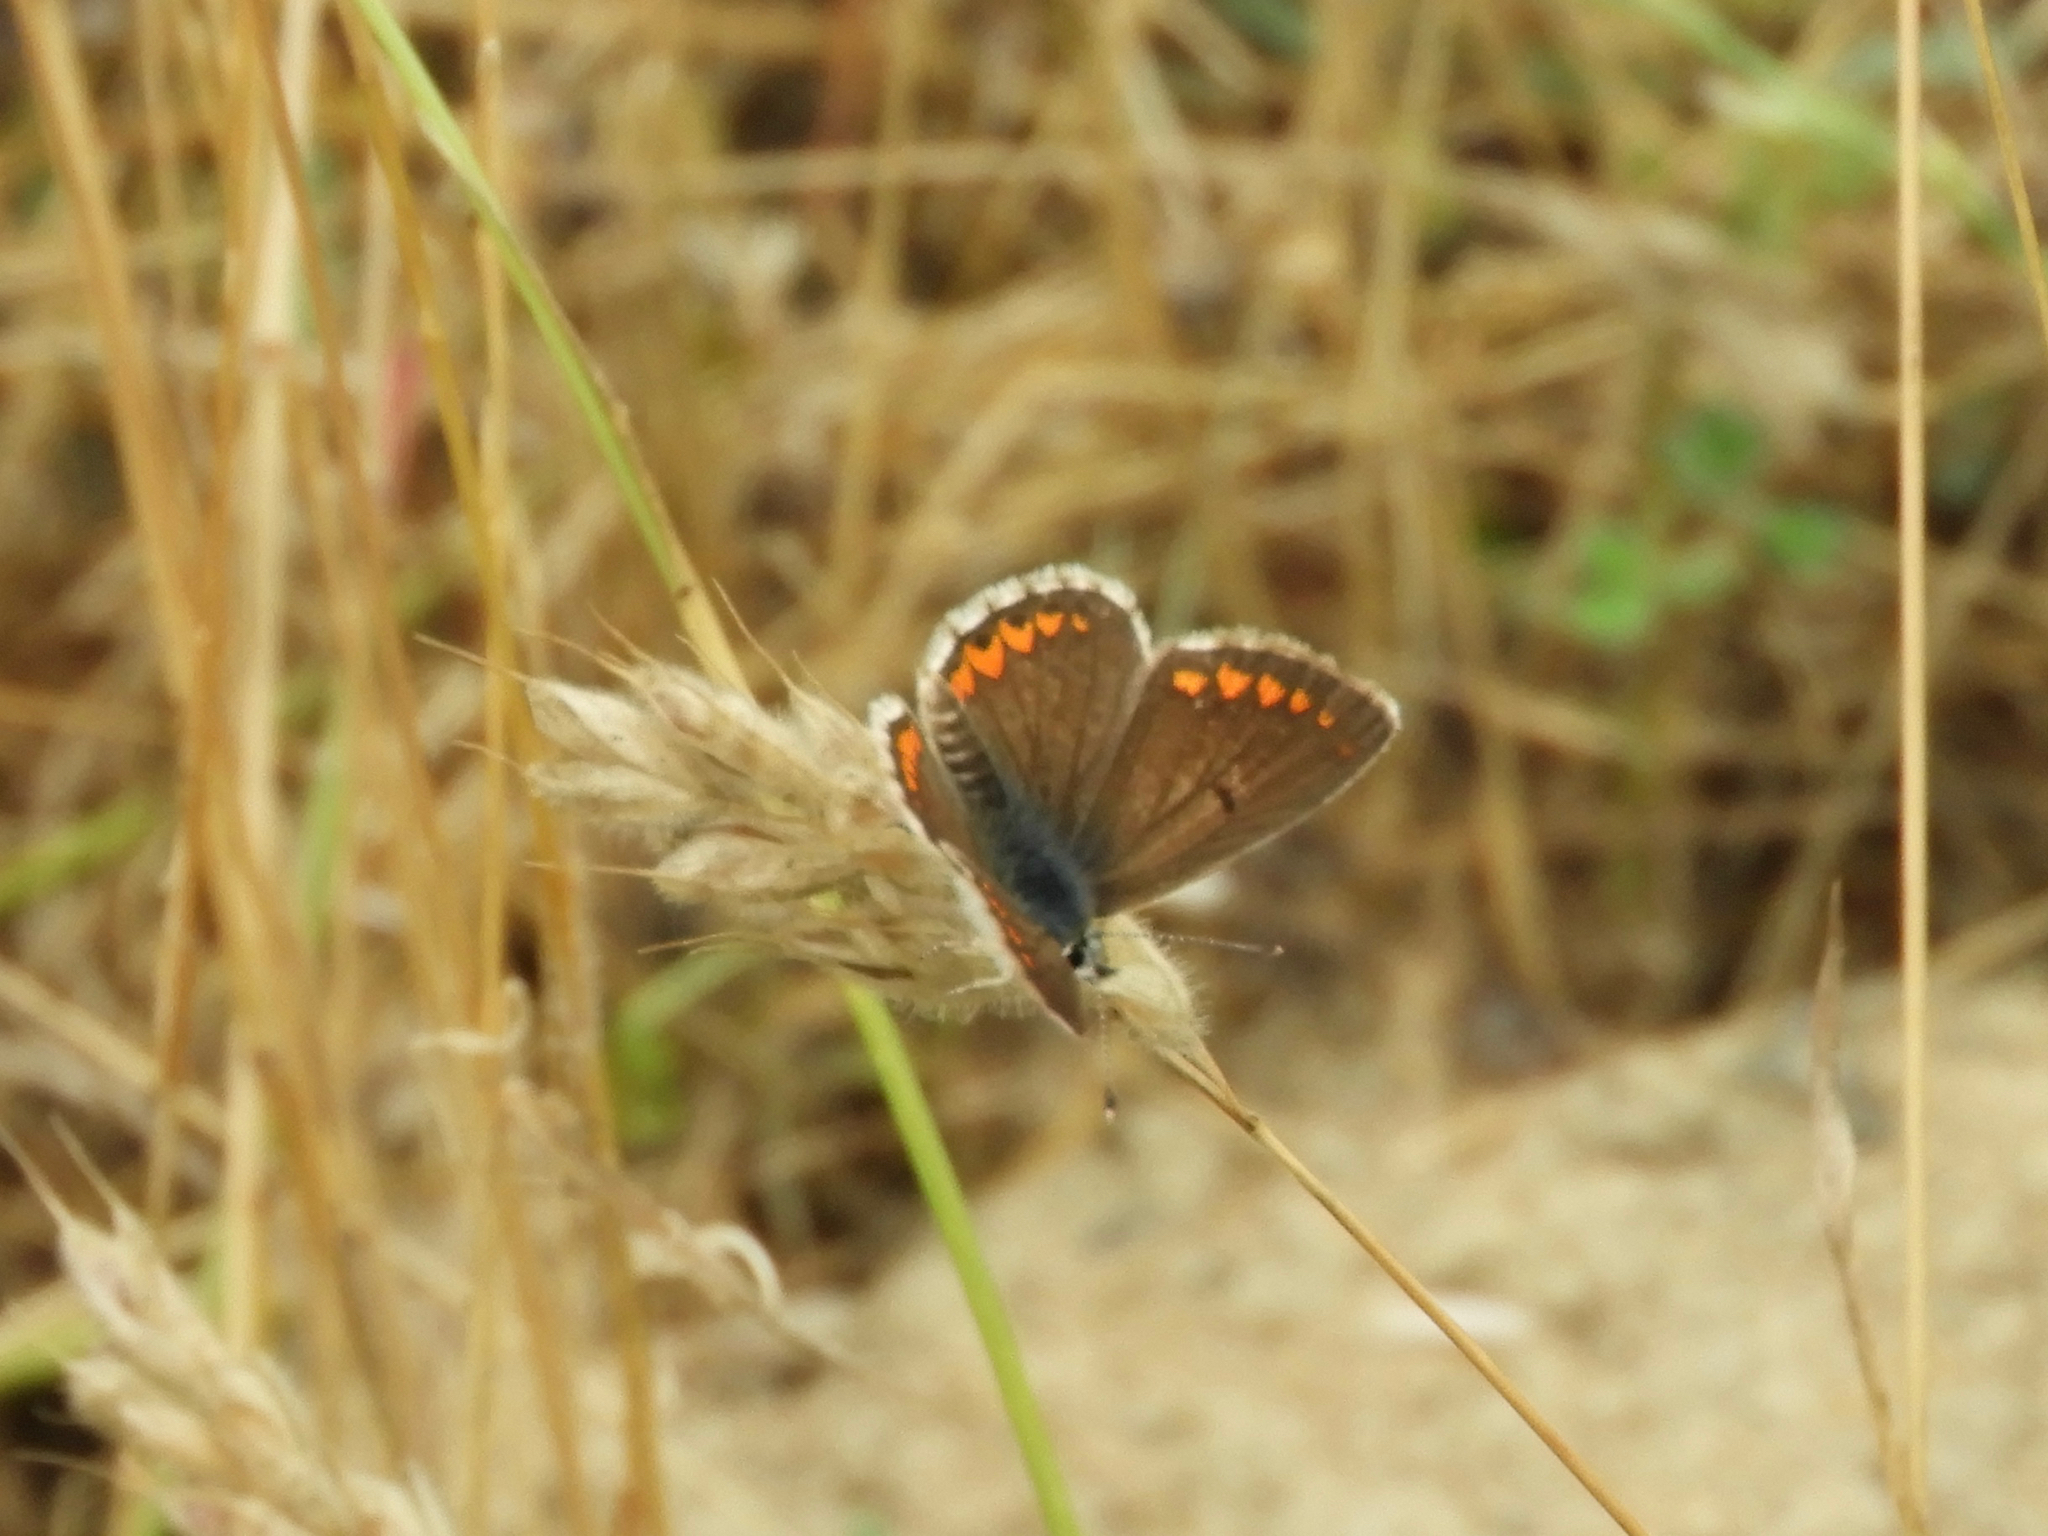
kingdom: Animalia
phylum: Arthropoda
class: Insecta
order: Lepidoptera
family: Lycaenidae
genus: Aricia
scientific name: Aricia agestis
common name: Brown argus
